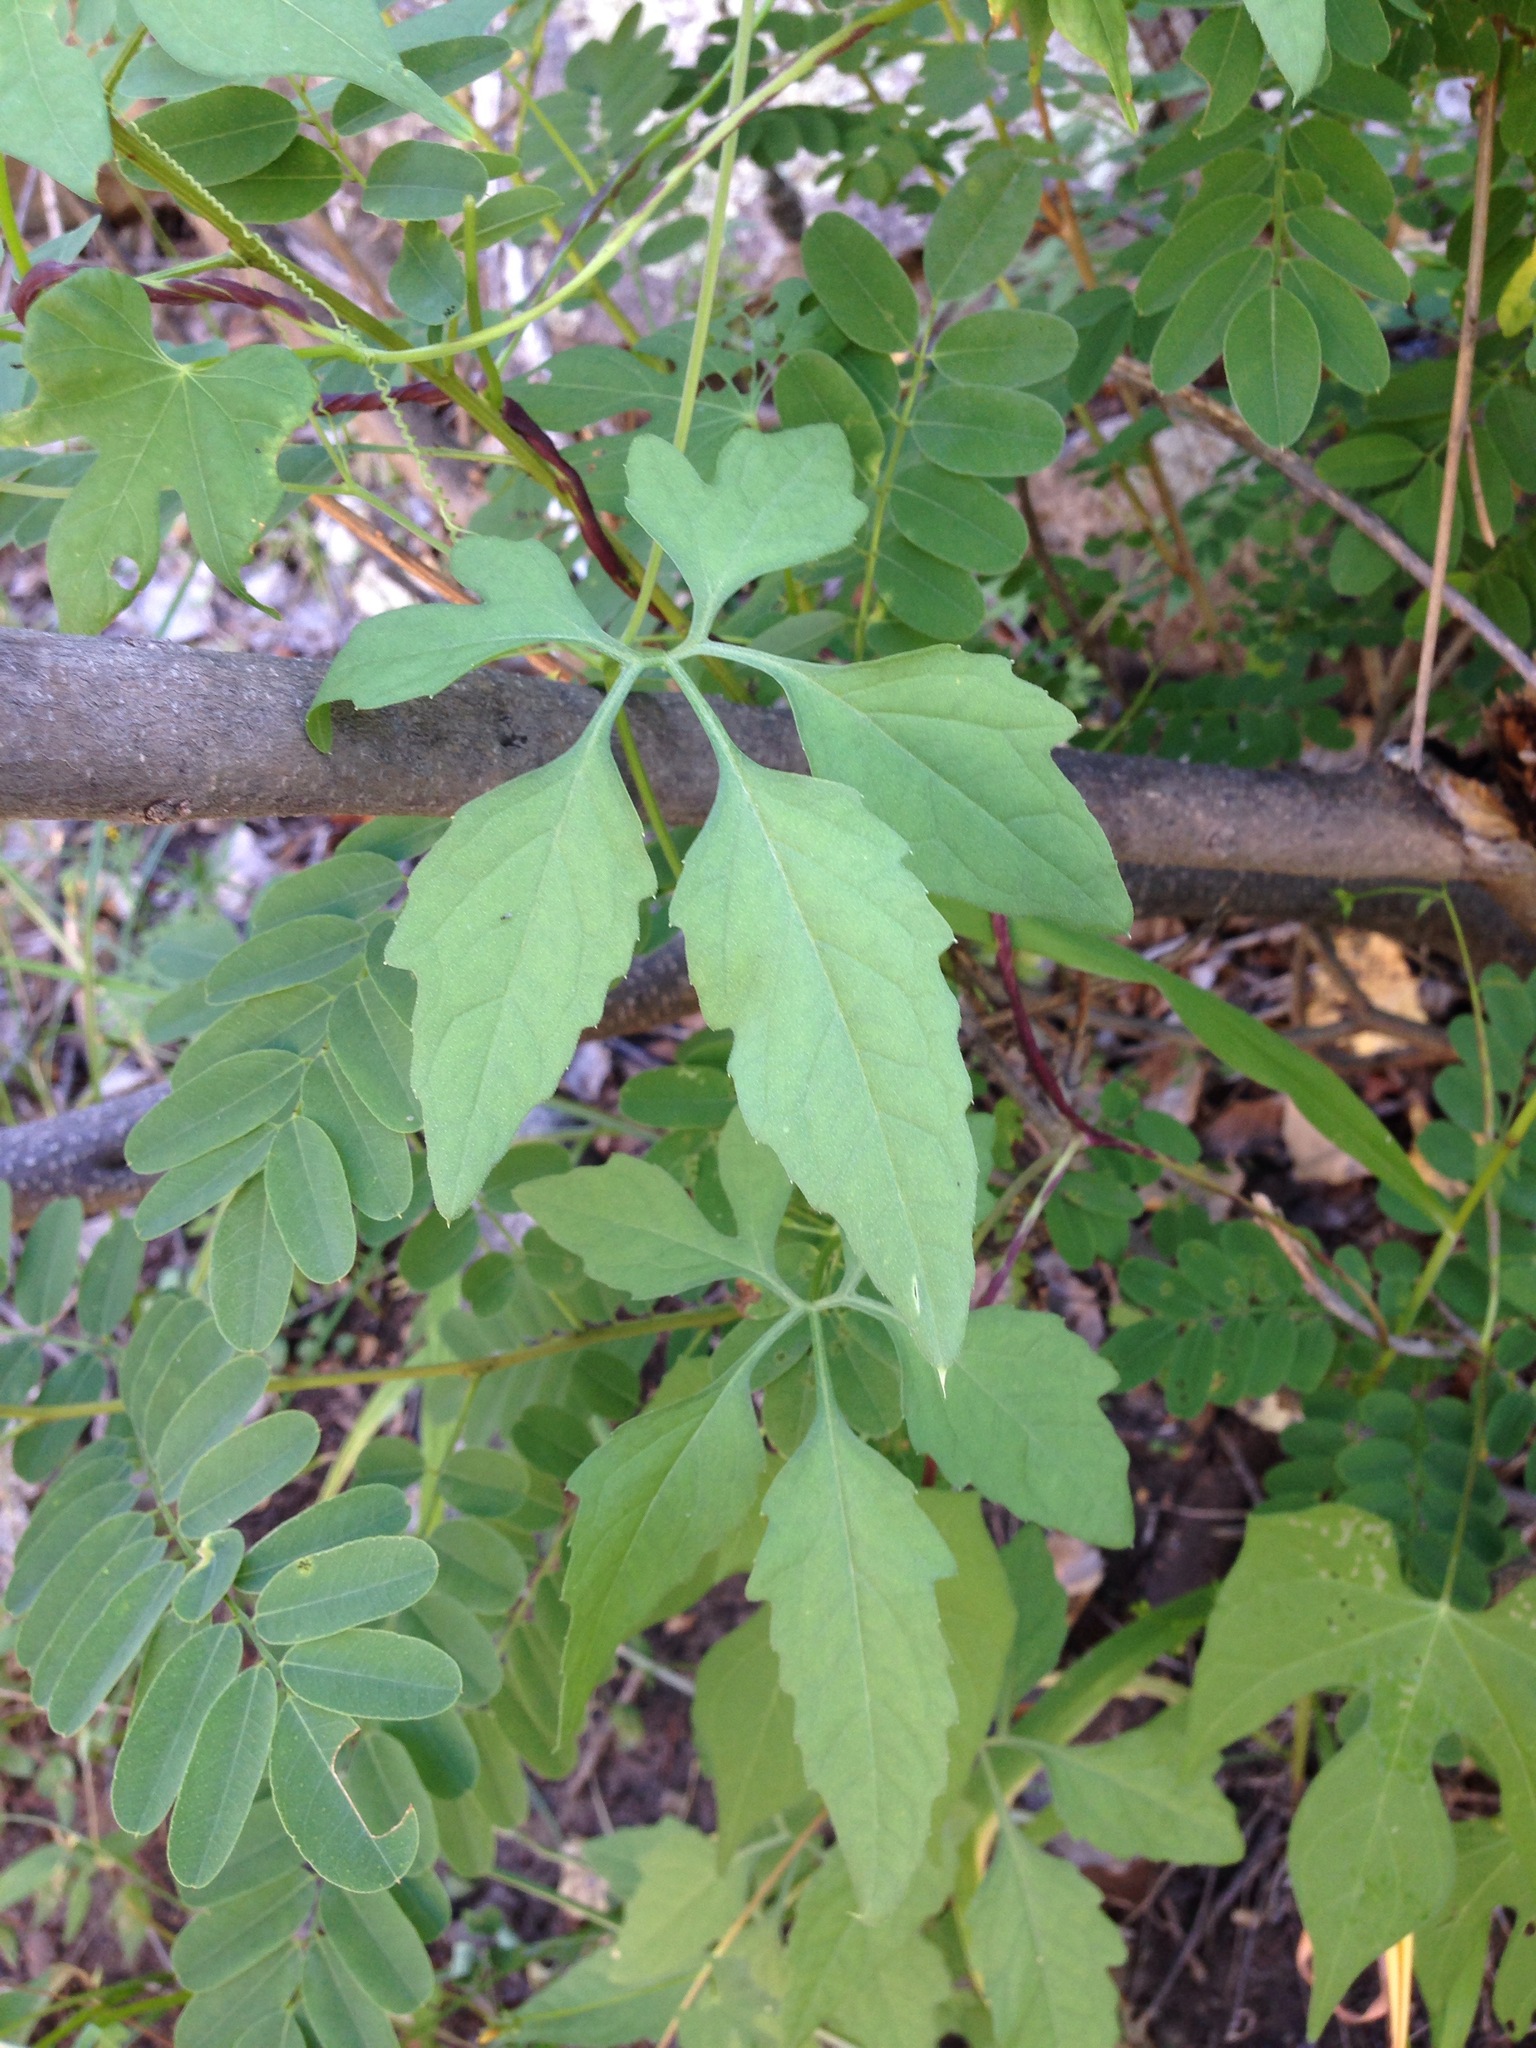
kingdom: Plantae
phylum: Tracheophyta
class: Magnoliopsida
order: Cucurbitales
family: Cucurbitaceae
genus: Cyclanthera
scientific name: Cyclanthera gracillima
